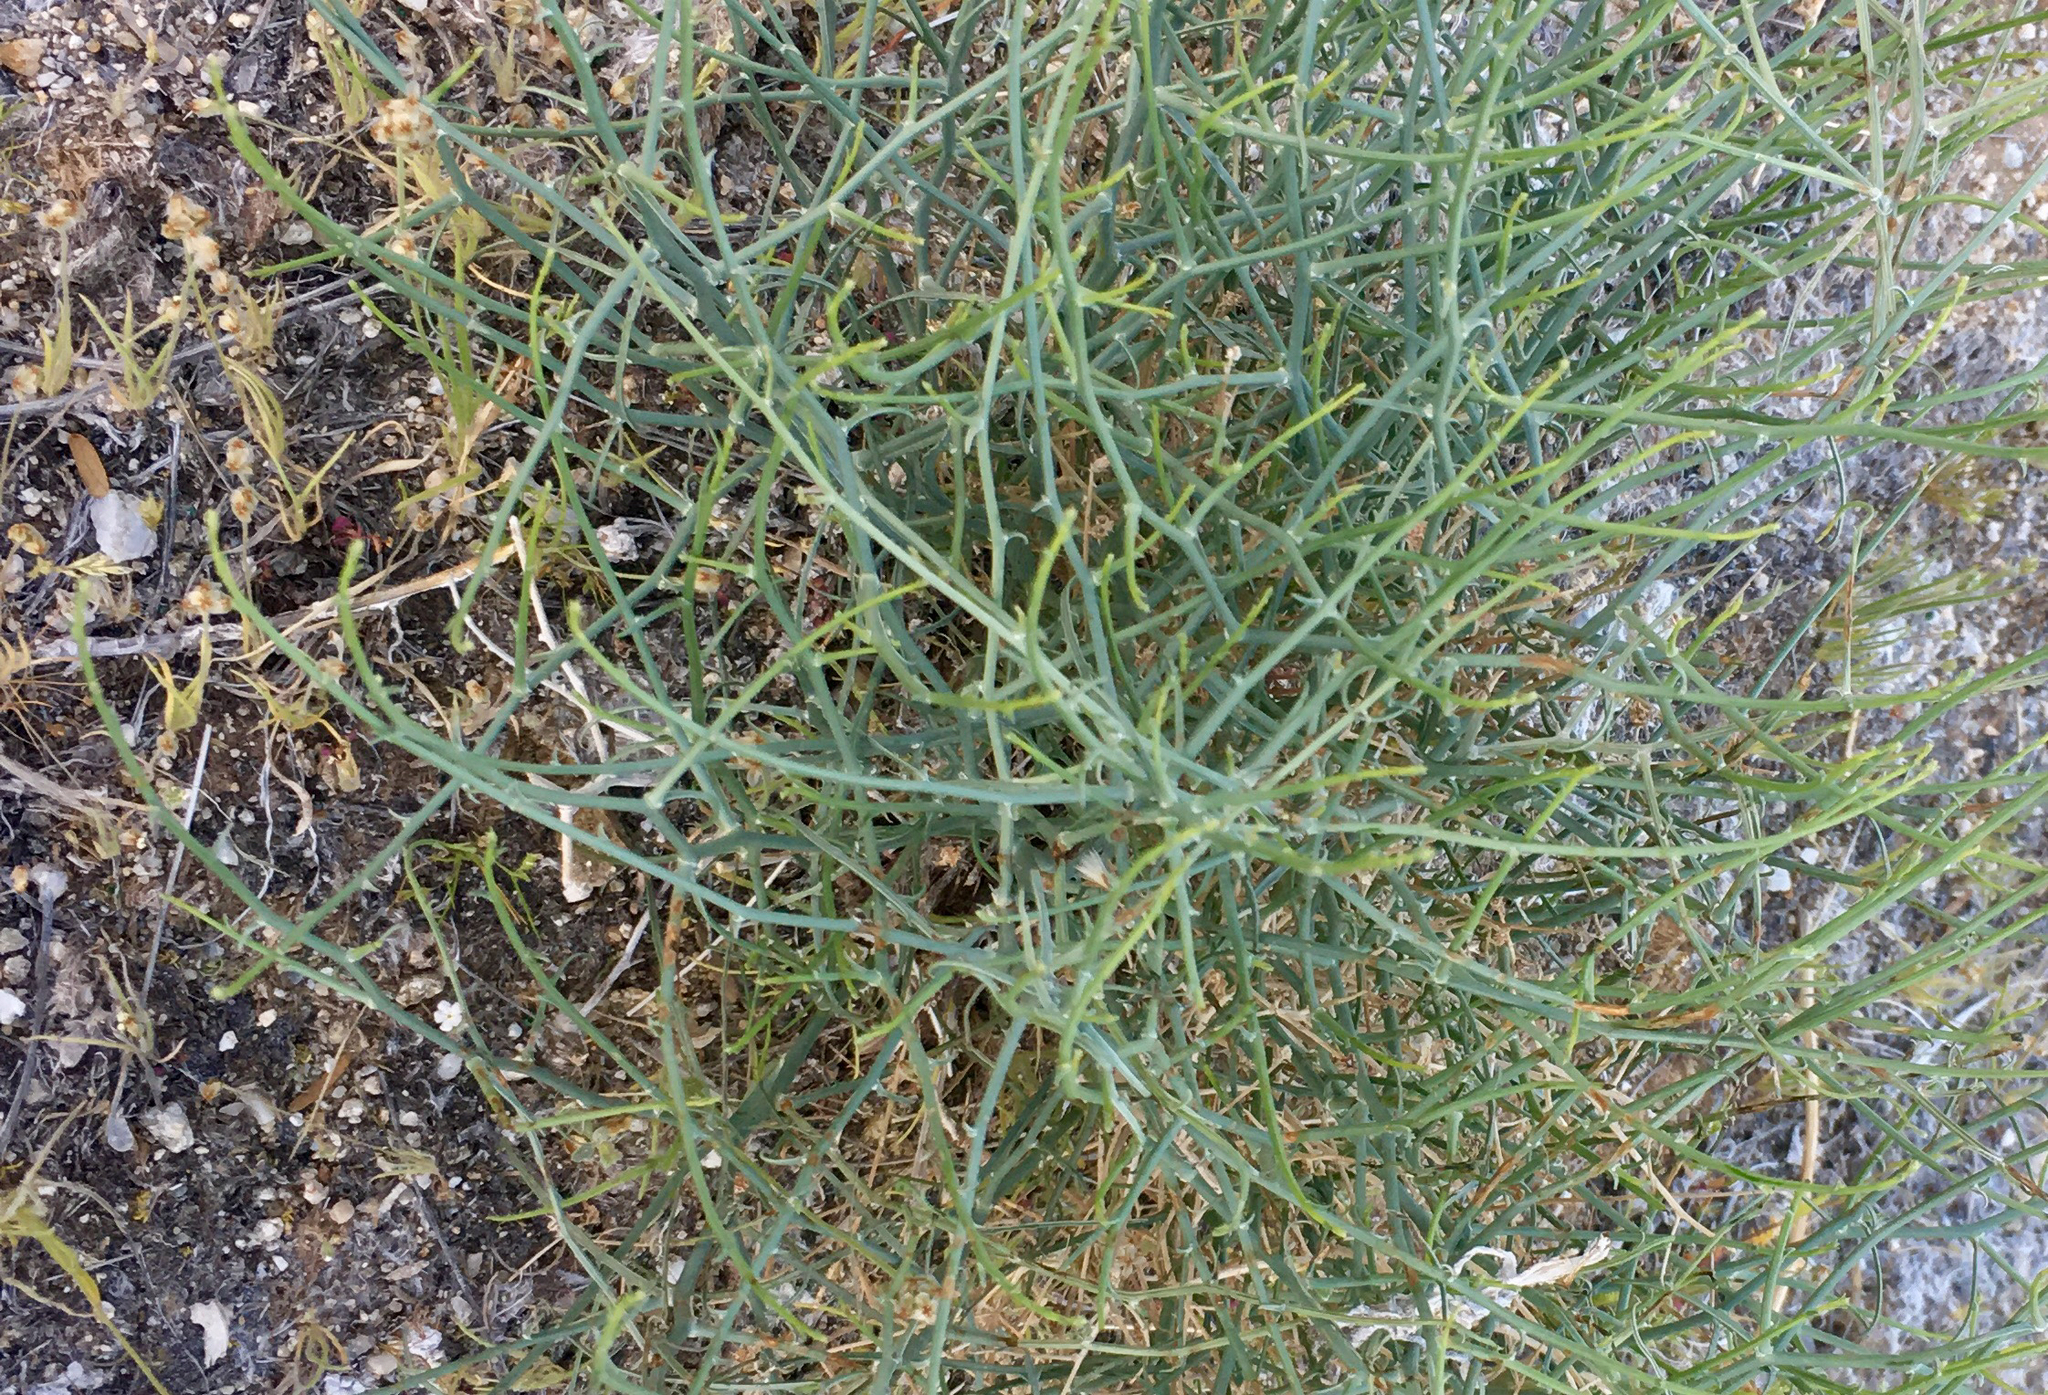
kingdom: Plantae
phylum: Tracheophyta
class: Magnoliopsida
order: Asterales
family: Asteraceae
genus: Stephanomeria
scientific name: Stephanomeria pauciflora
